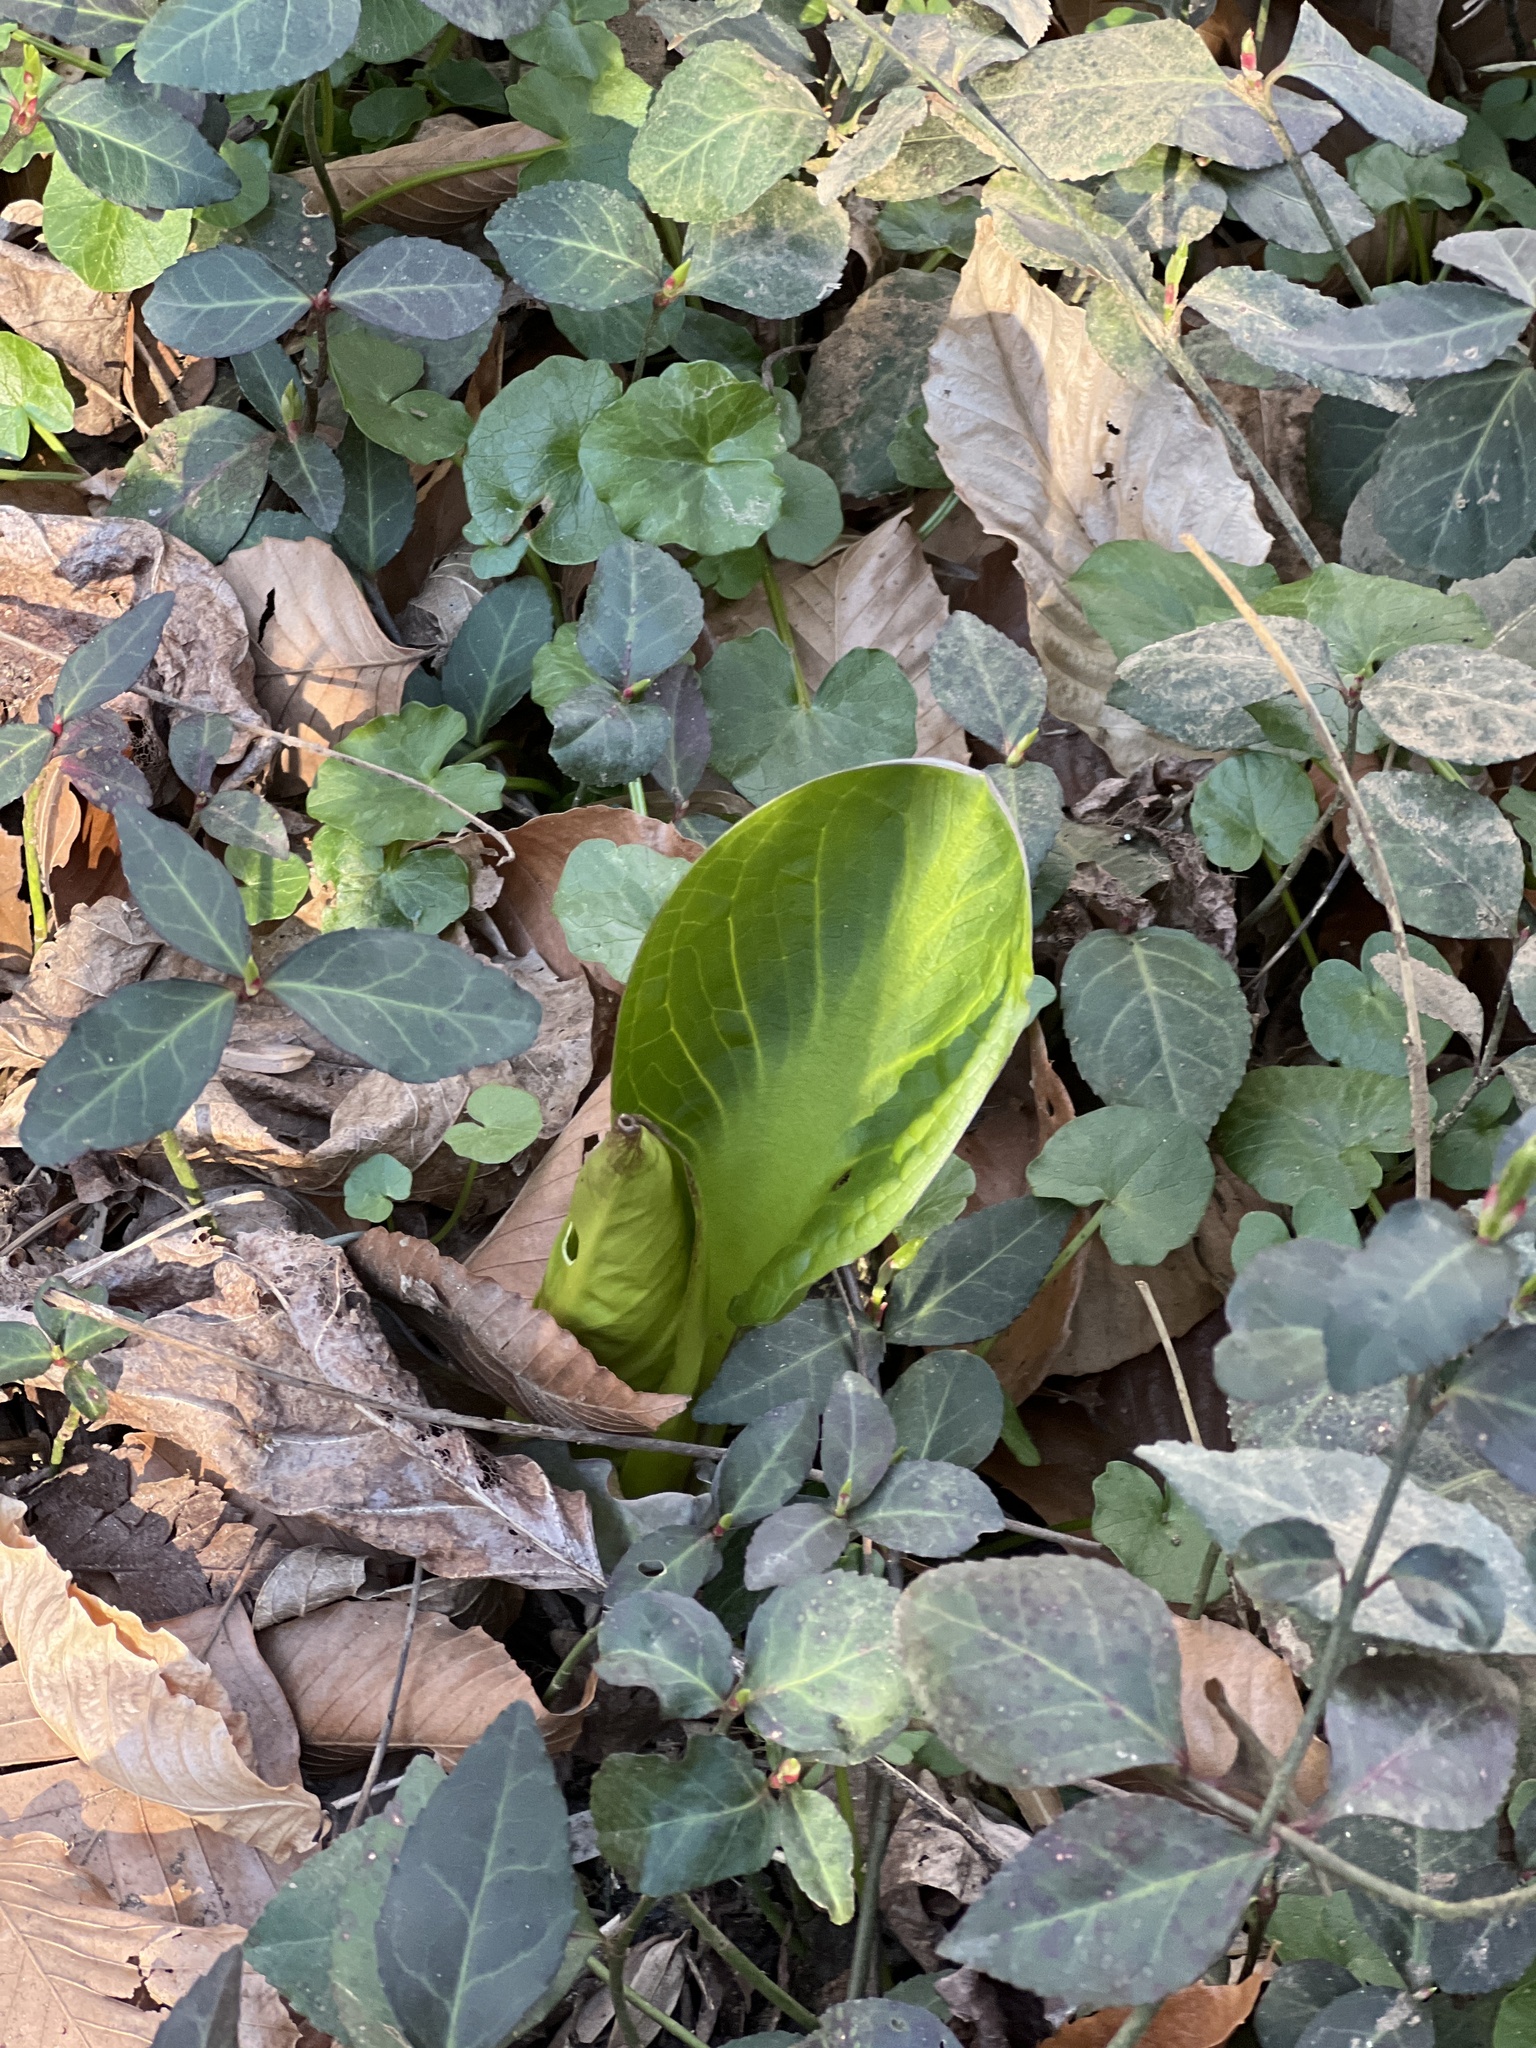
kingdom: Plantae
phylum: Tracheophyta
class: Liliopsida
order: Alismatales
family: Araceae
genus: Symplocarpus
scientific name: Symplocarpus foetidus
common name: Eastern skunk cabbage
